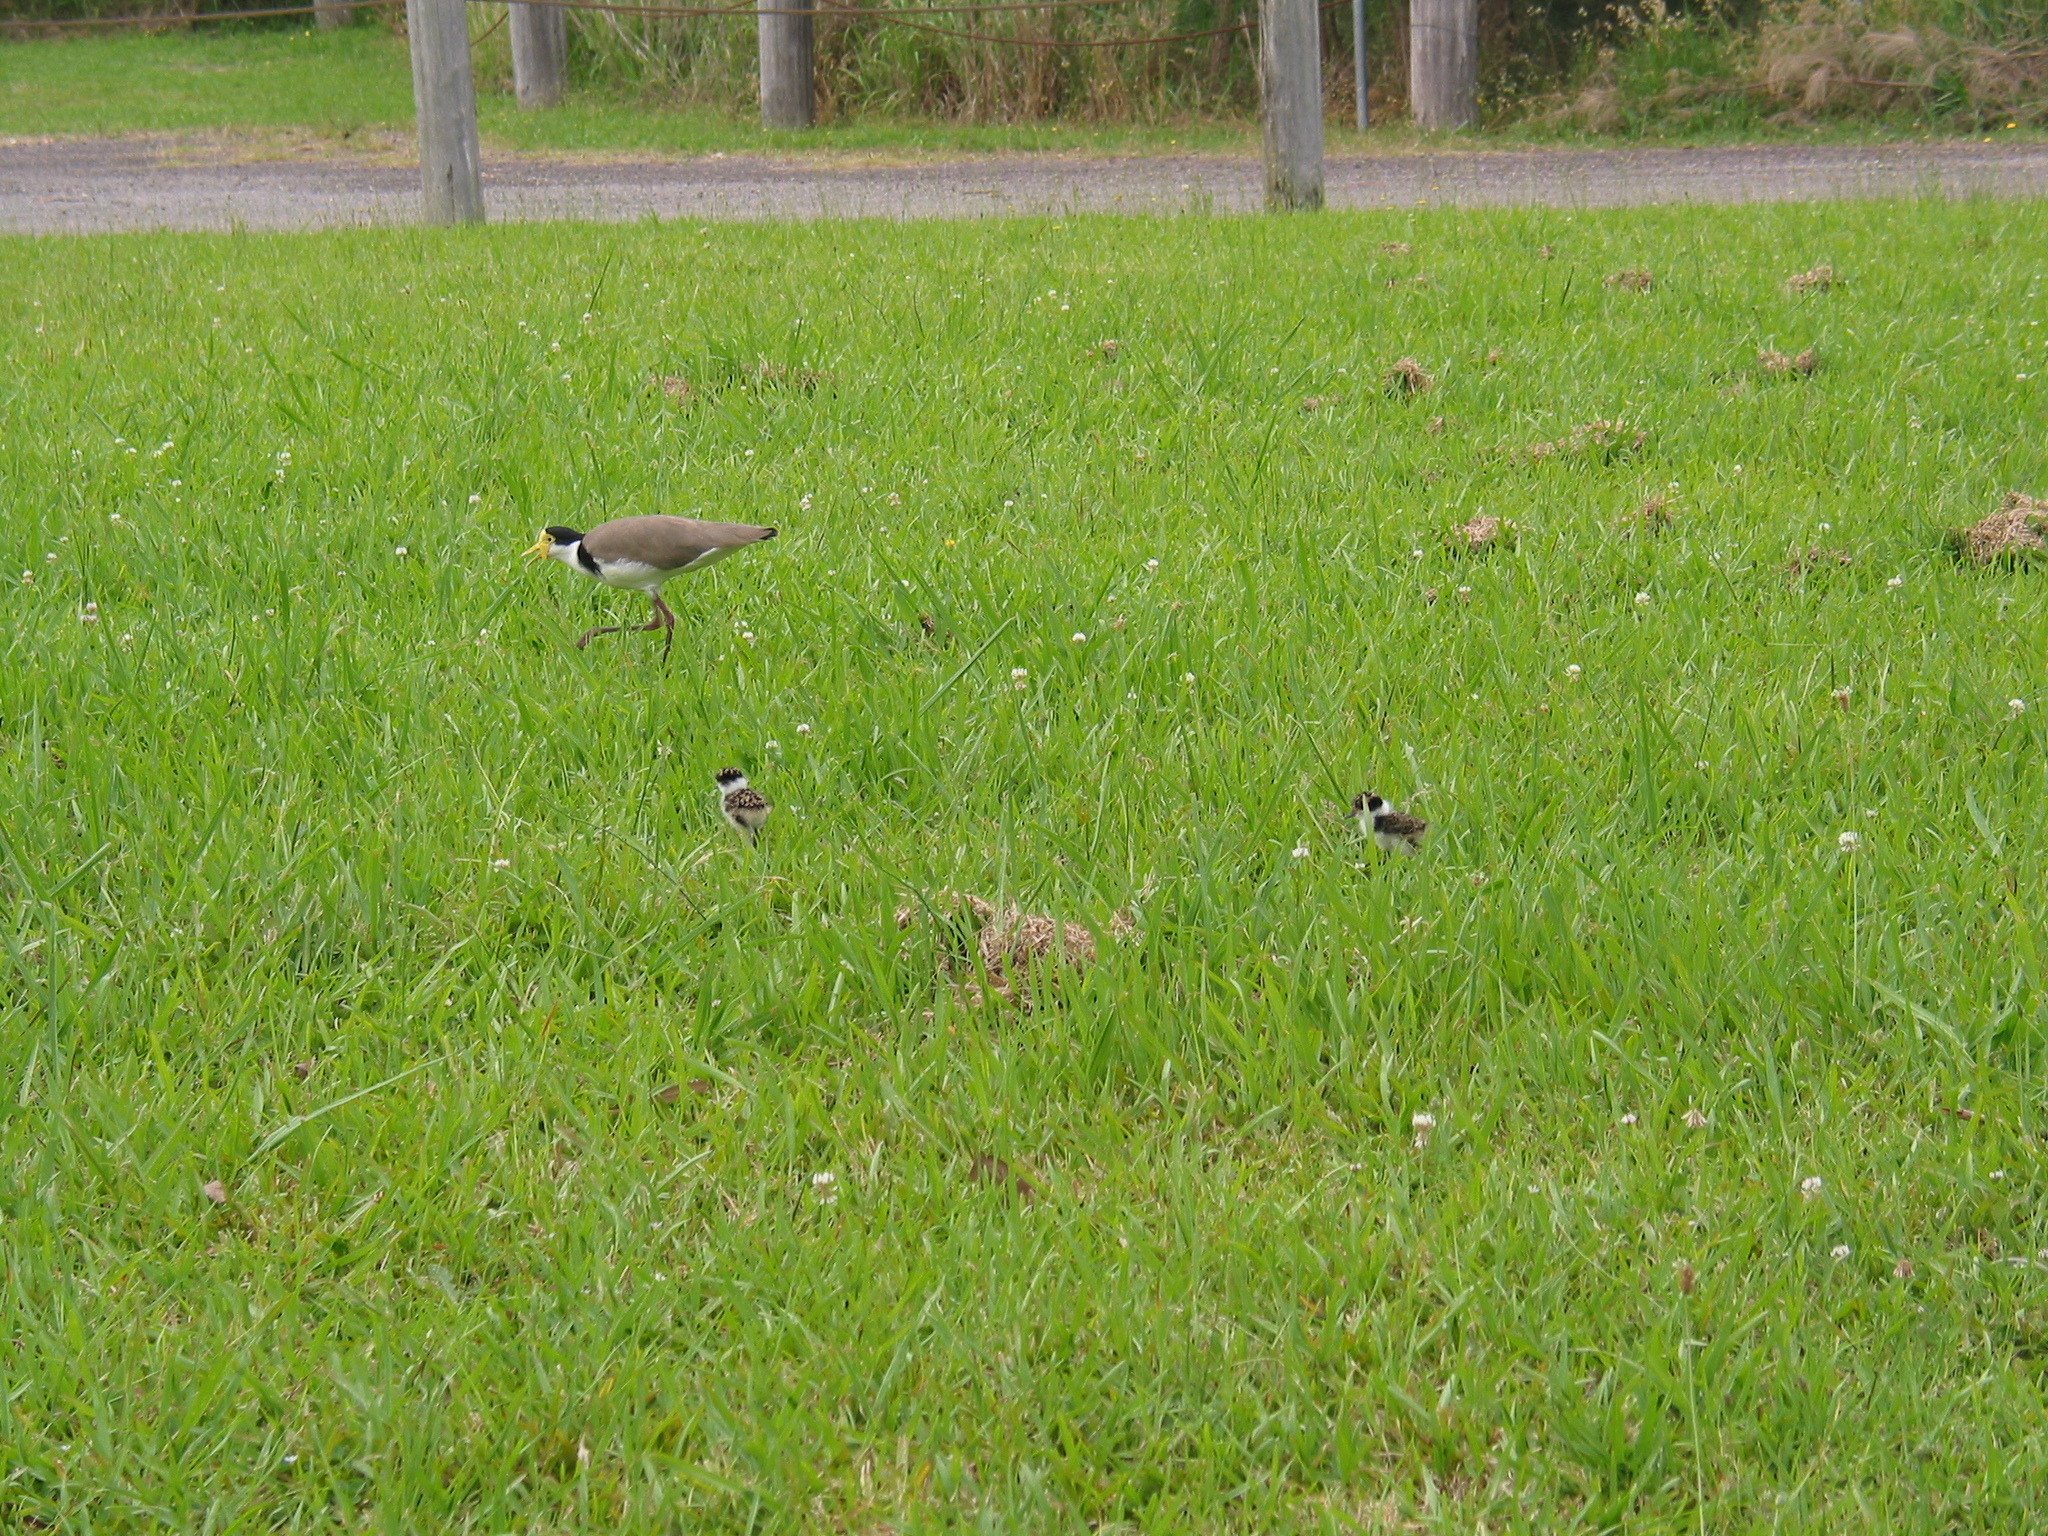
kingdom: Animalia
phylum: Chordata
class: Aves
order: Charadriiformes
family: Charadriidae
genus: Vanellus
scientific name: Vanellus miles
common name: Masked lapwing
